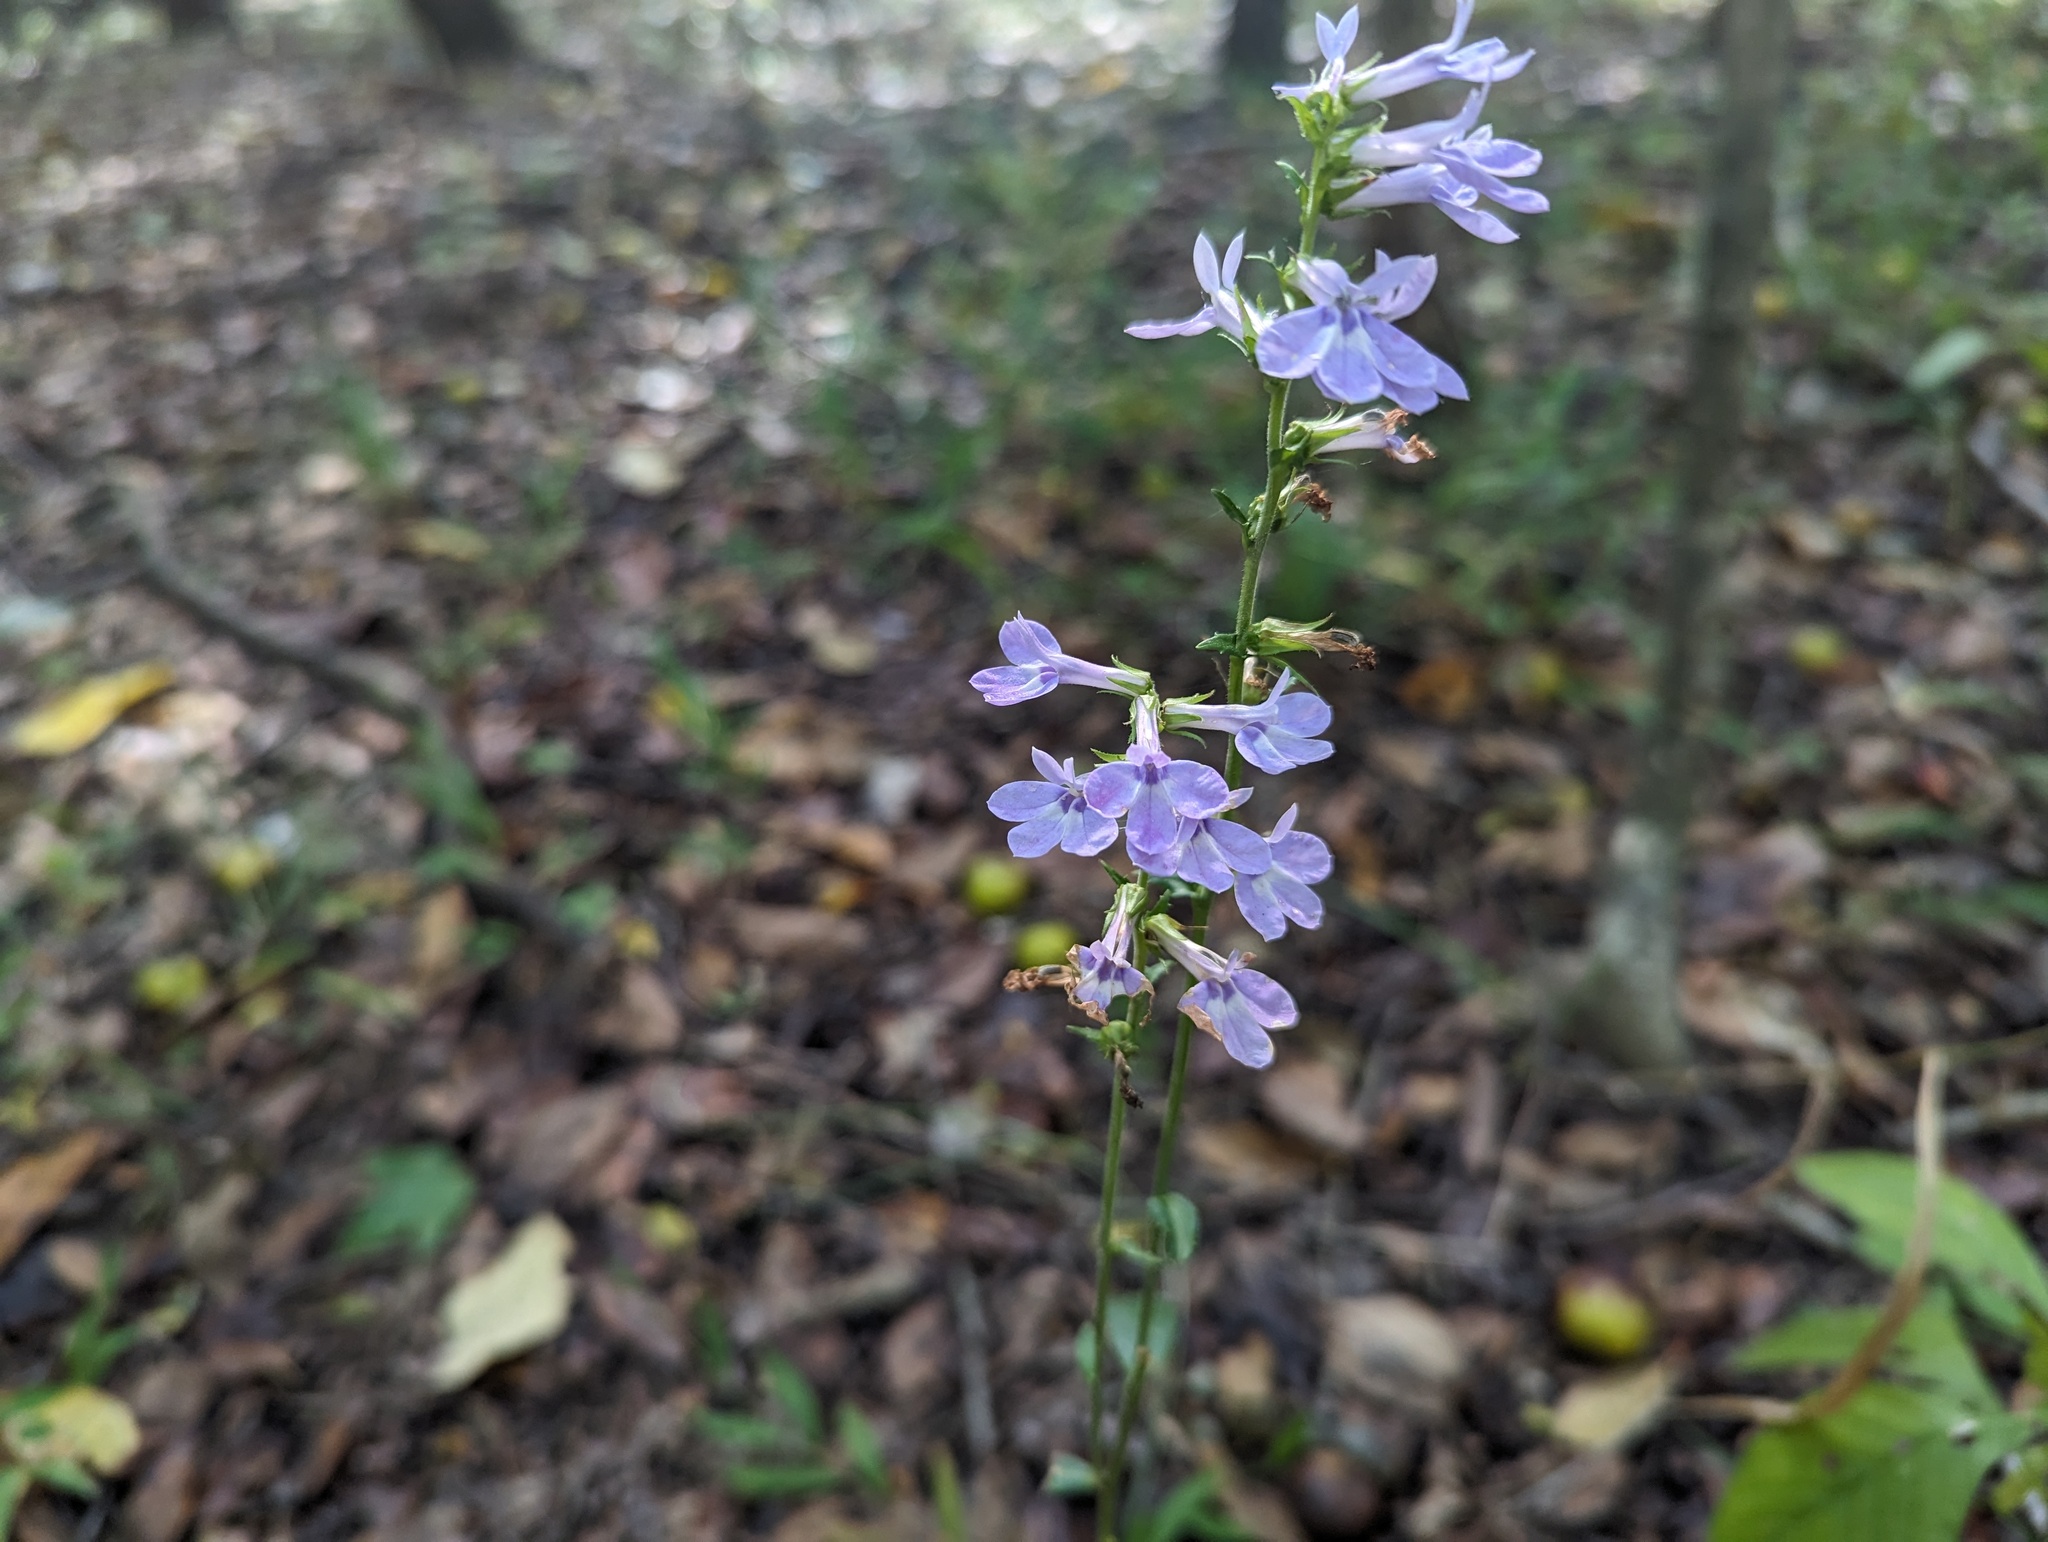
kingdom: Plantae
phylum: Tracheophyta
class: Magnoliopsida
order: Asterales
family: Campanulaceae
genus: Lobelia
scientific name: Lobelia puberula
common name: Purple dewdrop
